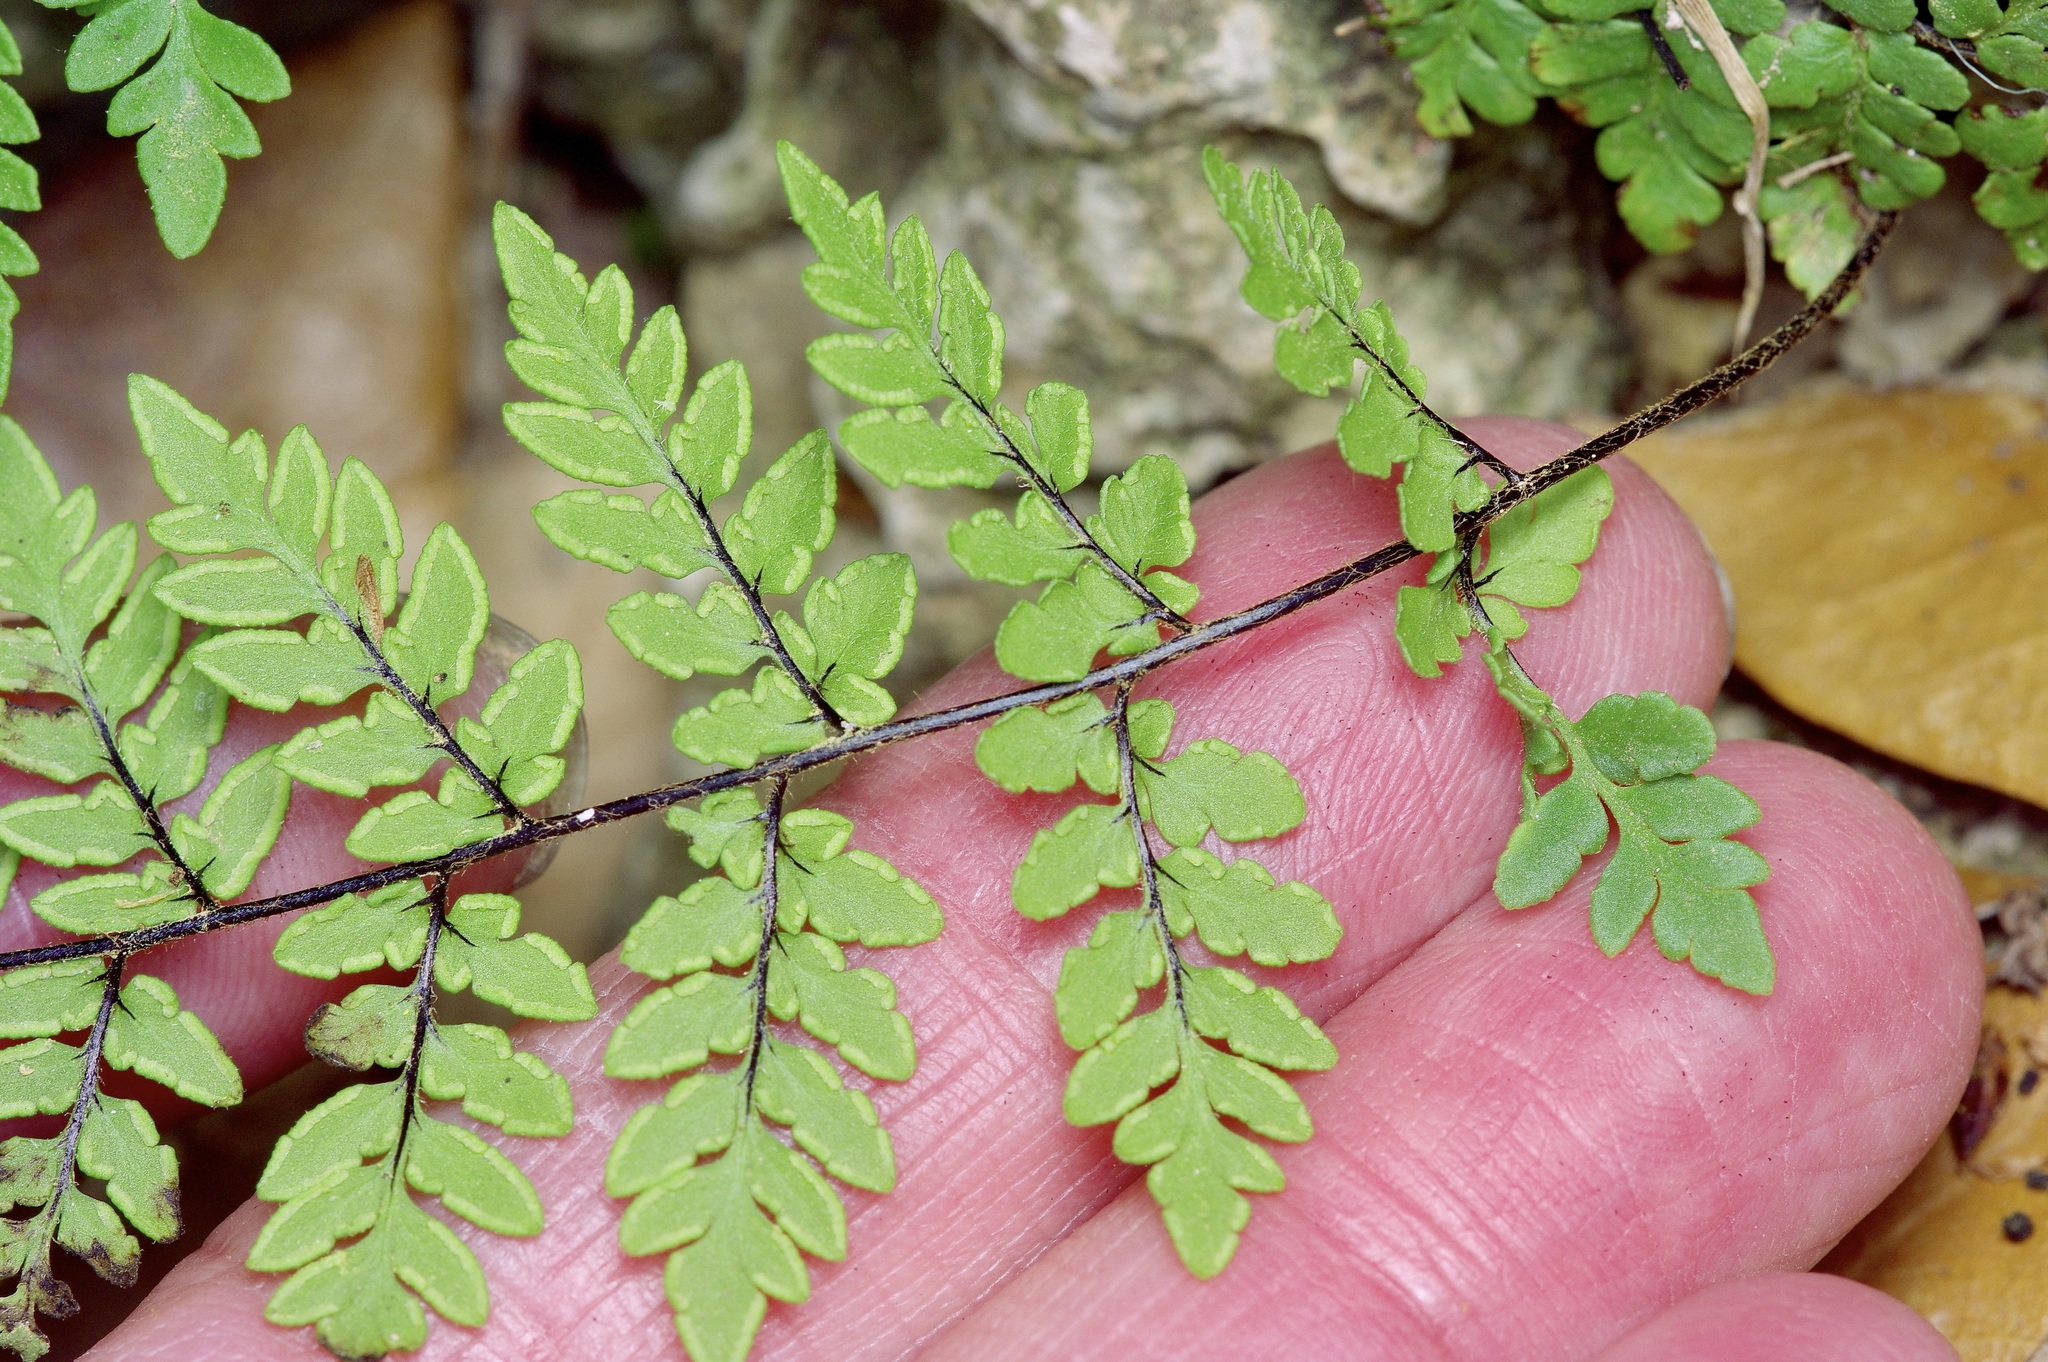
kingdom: Plantae
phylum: Tracheophyta
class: Polypodiopsida
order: Polypodiales
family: Pteridaceae
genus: Myriopteris
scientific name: Myriopteris alabamensis
